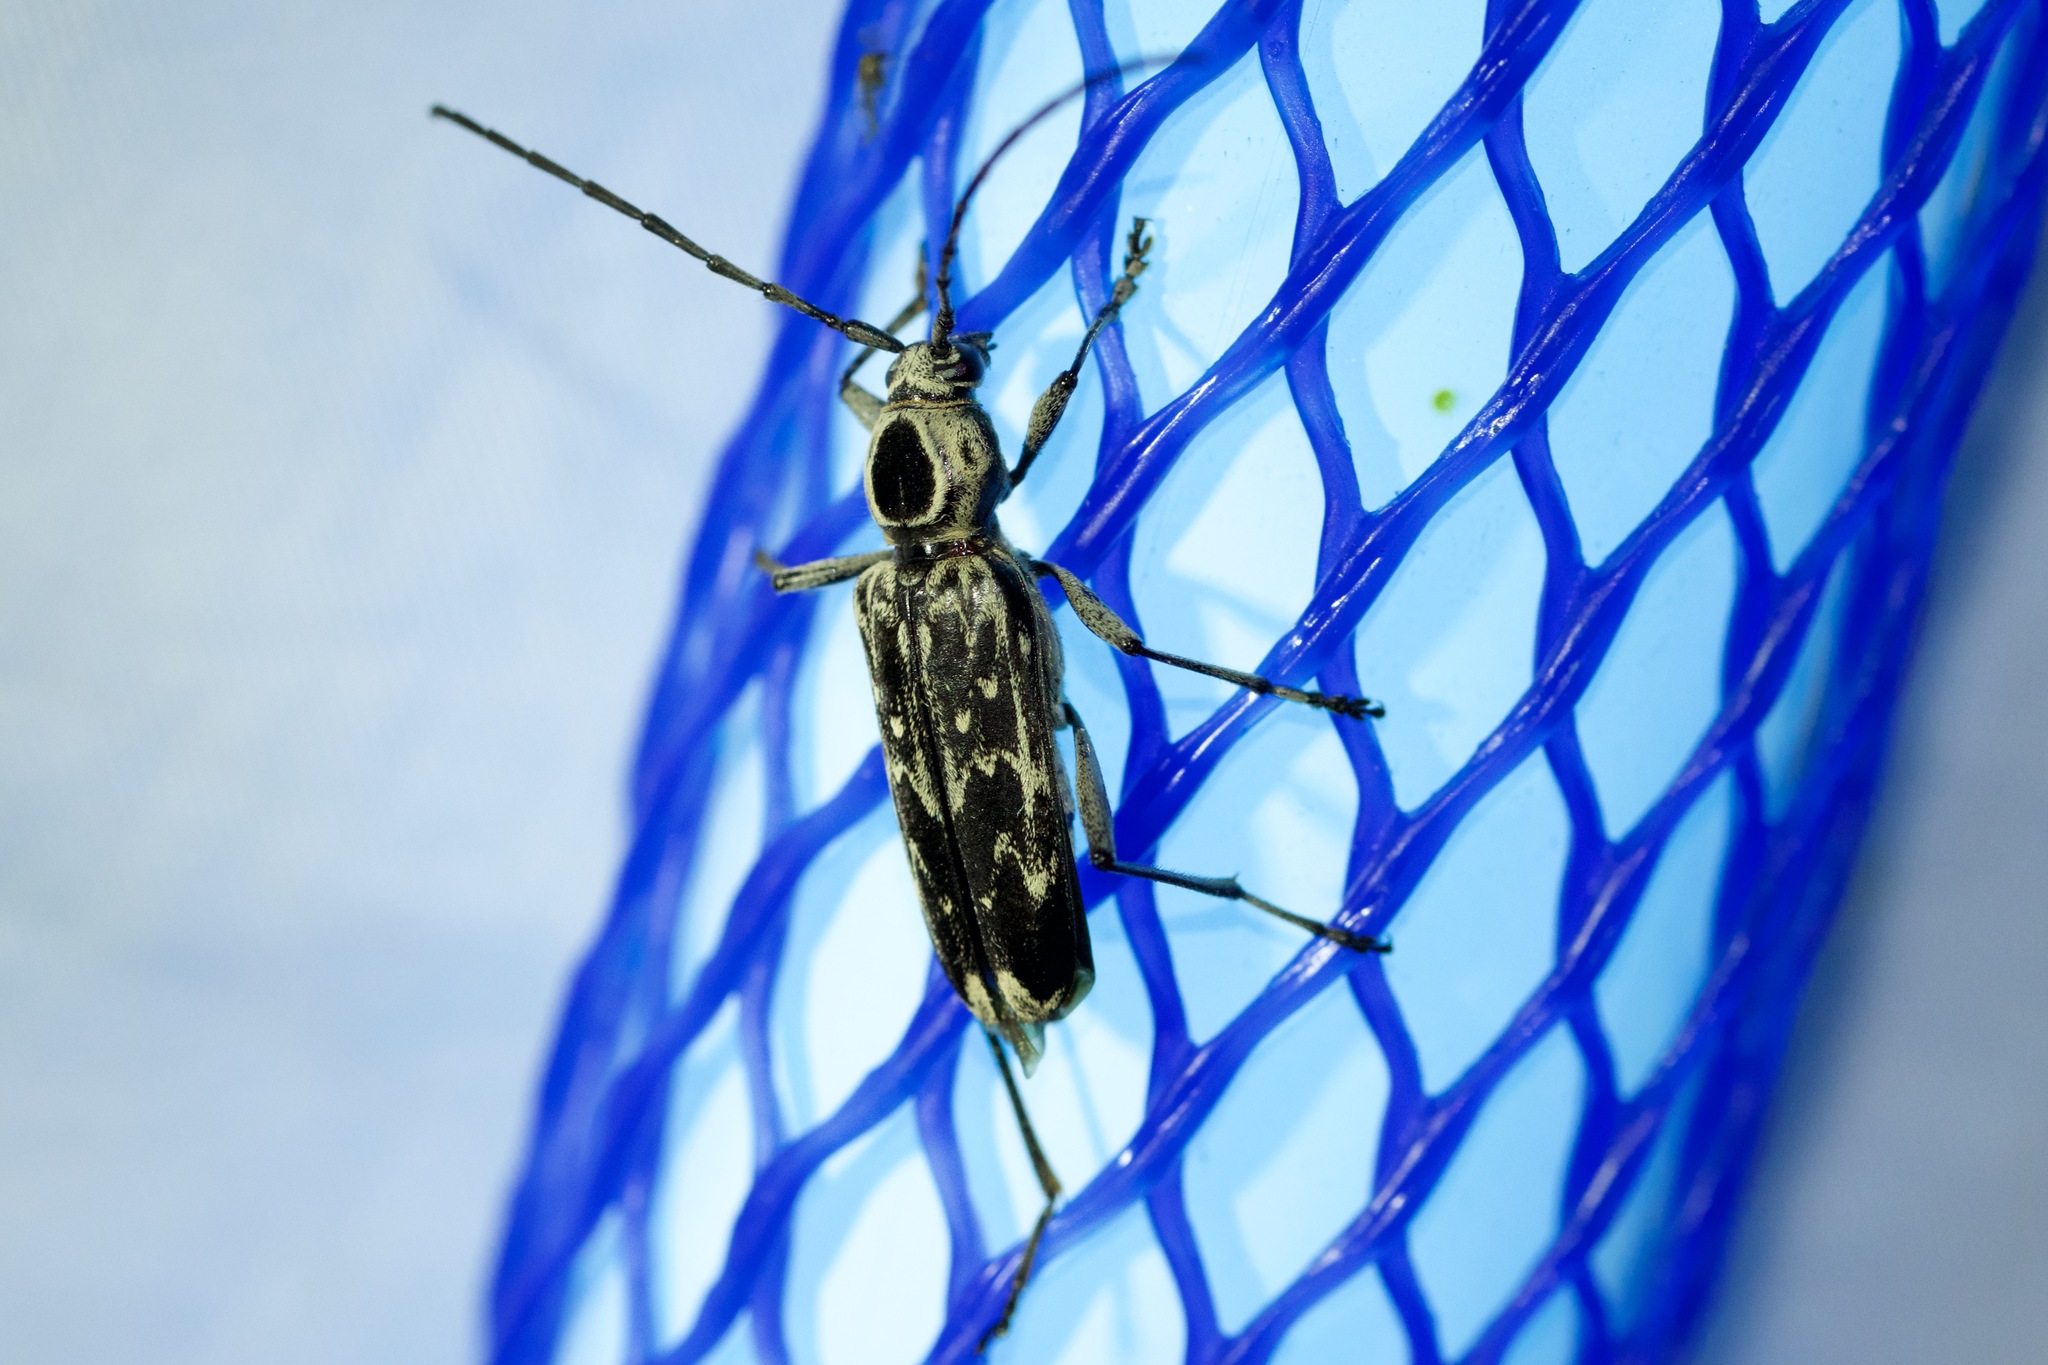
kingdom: Animalia
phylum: Arthropoda
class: Insecta
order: Coleoptera
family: Cerambycidae
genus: Sarosesthes
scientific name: Sarosesthes fulminans
